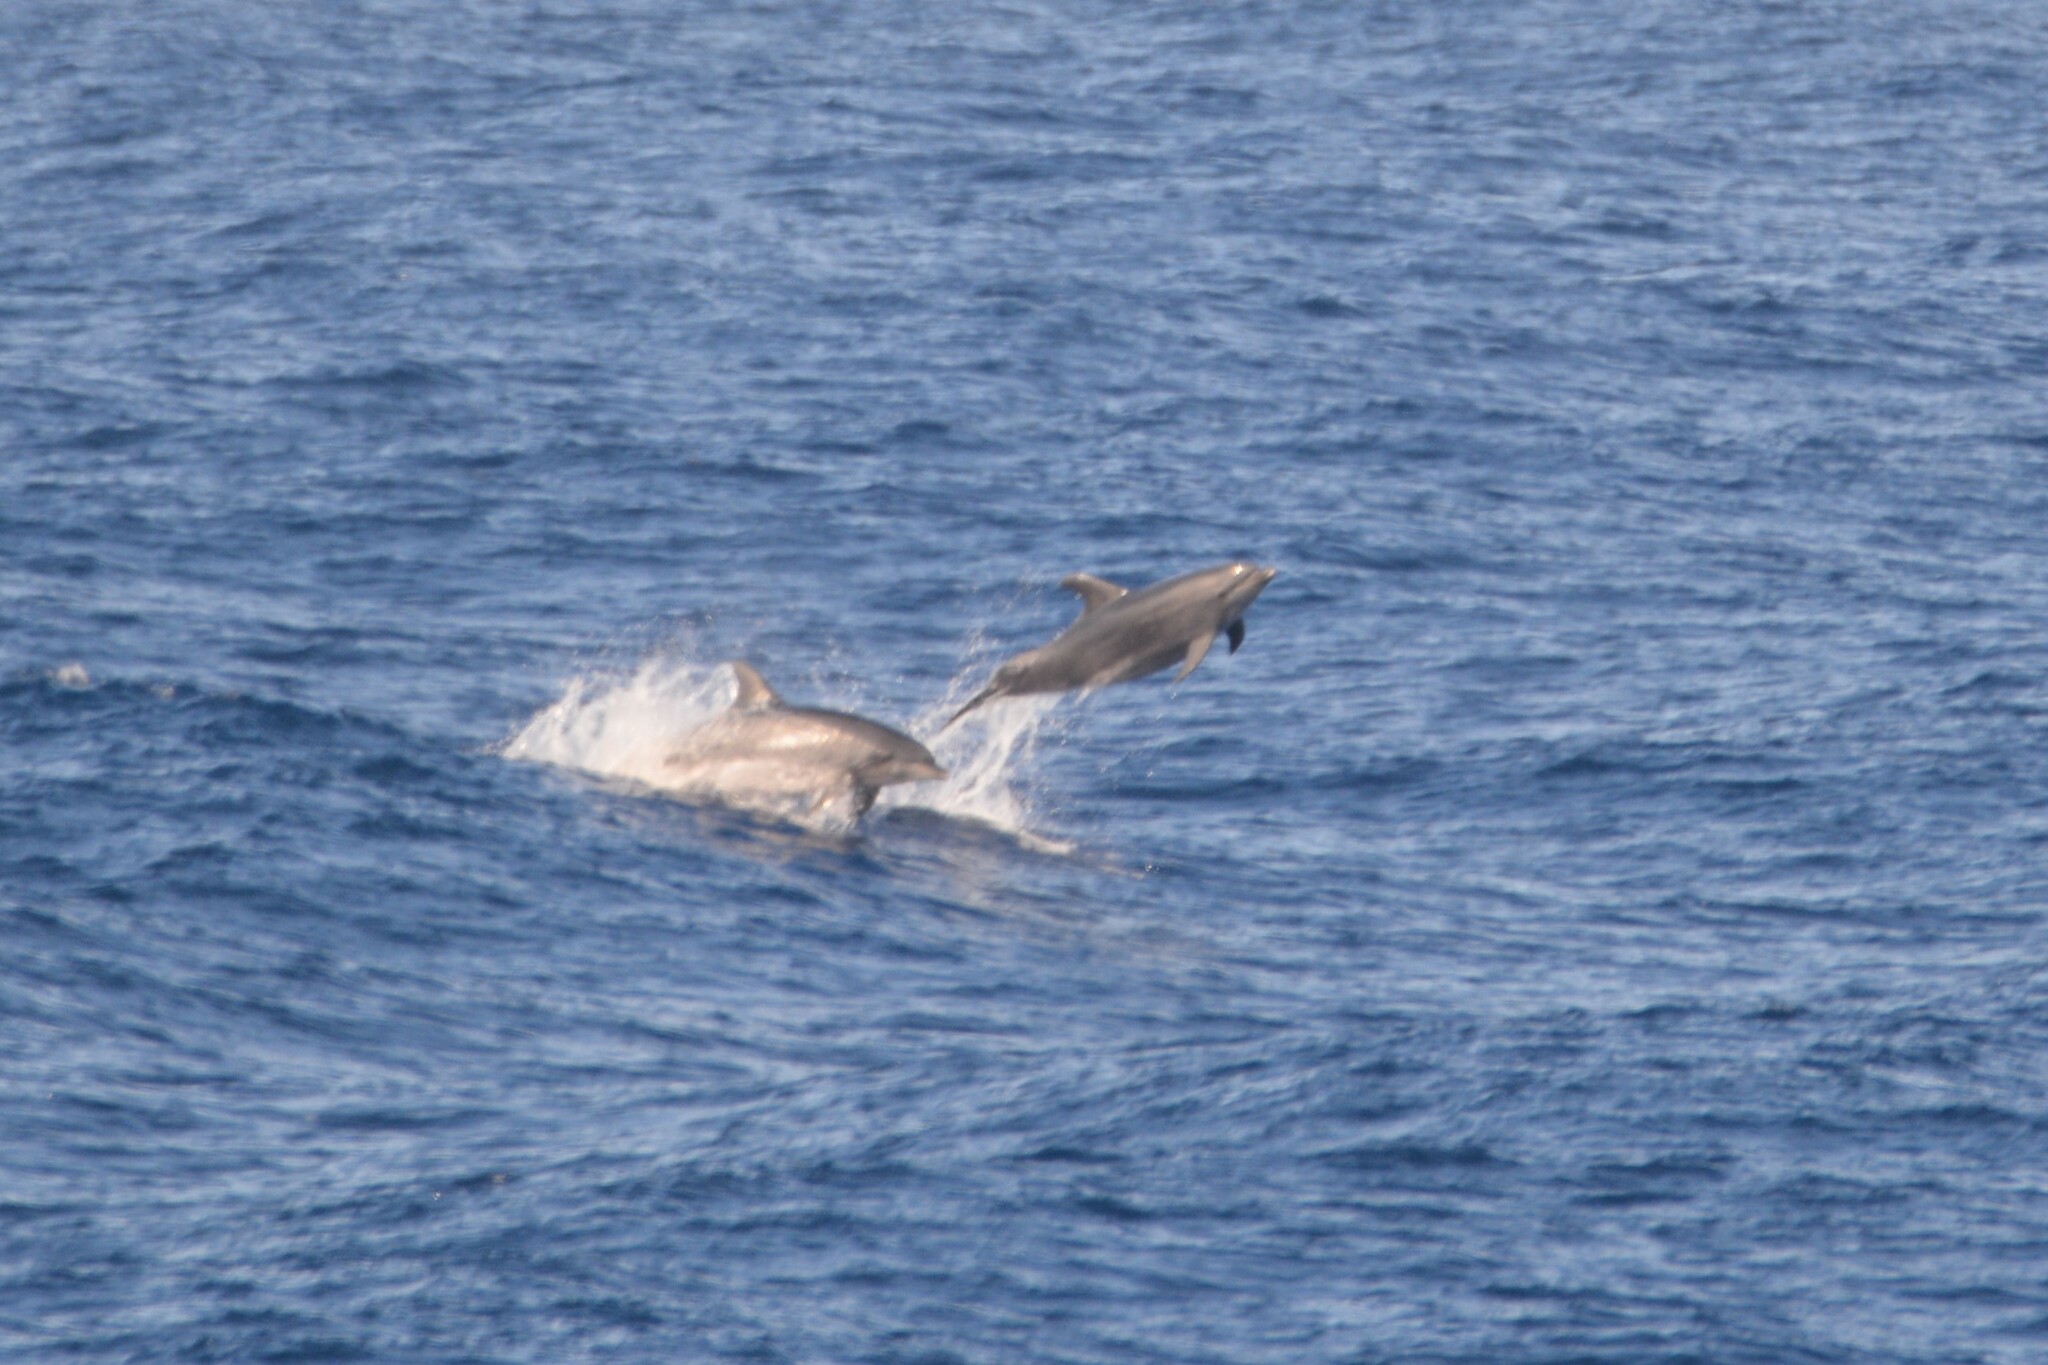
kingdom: Animalia
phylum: Chordata
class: Mammalia
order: Cetacea
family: Delphinidae
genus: Tursiops
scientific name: Tursiops truncatus
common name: Bottlenose dolphin
